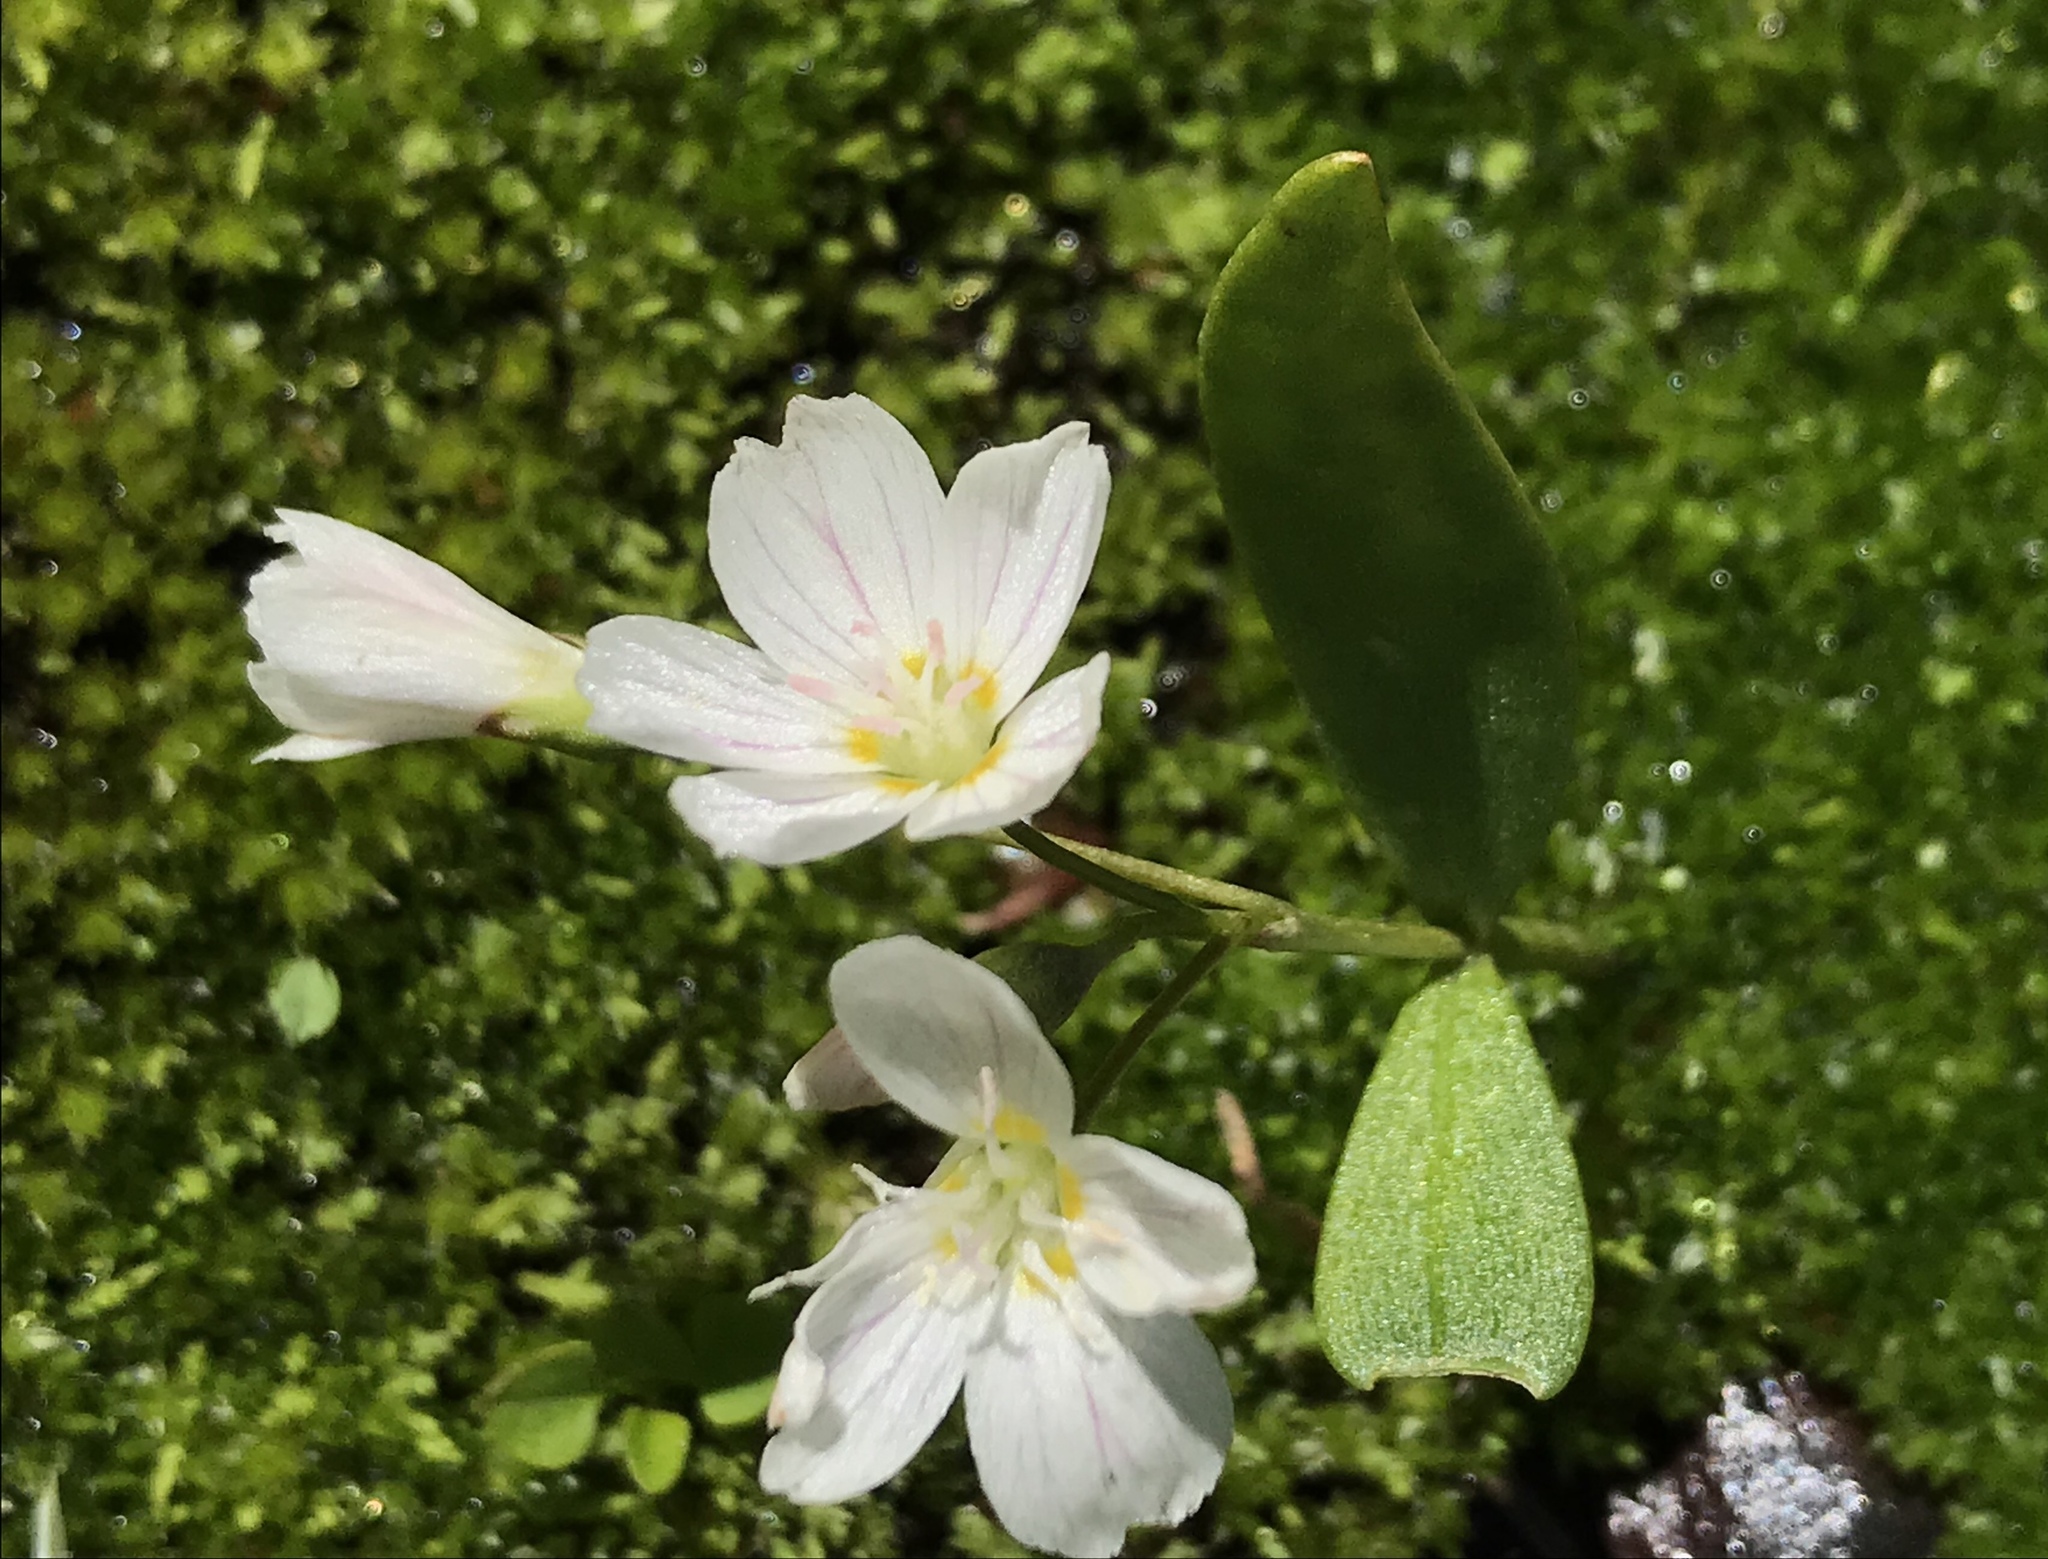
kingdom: Plantae
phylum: Tracheophyta
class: Magnoliopsida
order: Caryophyllales
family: Montiaceae
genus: Claytonia
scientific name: Claytonia lanceolata
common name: Western spring-beauty
